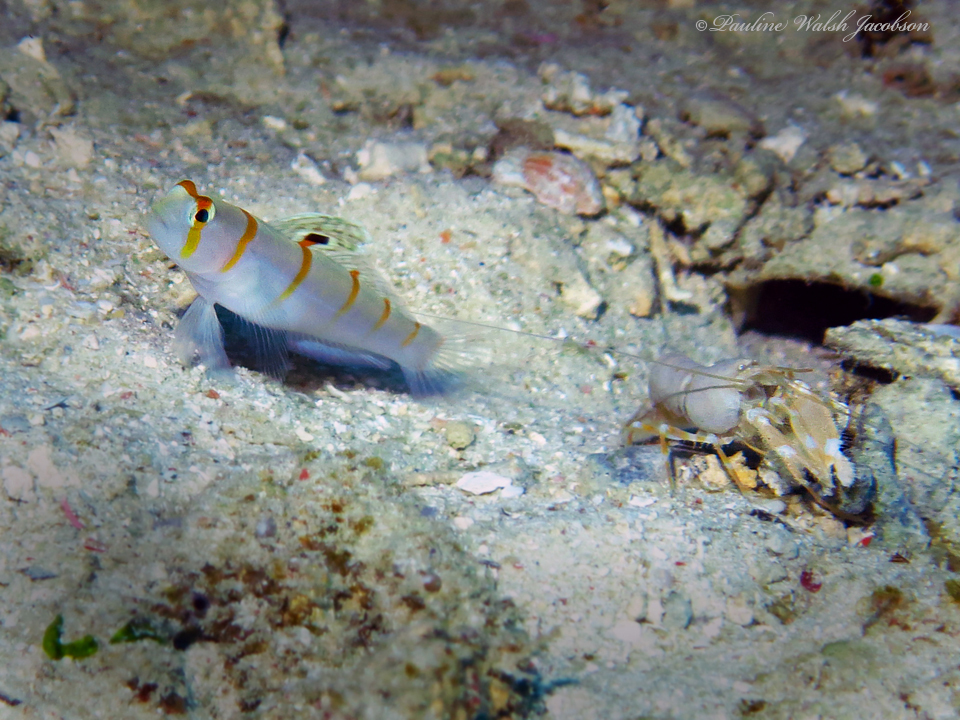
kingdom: Animalia
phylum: Chordata
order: Perciformes
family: Gobiidae
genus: Amblyeleotris
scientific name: Amblyeleotris randalli
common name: Gold-barred shrimp-goby
